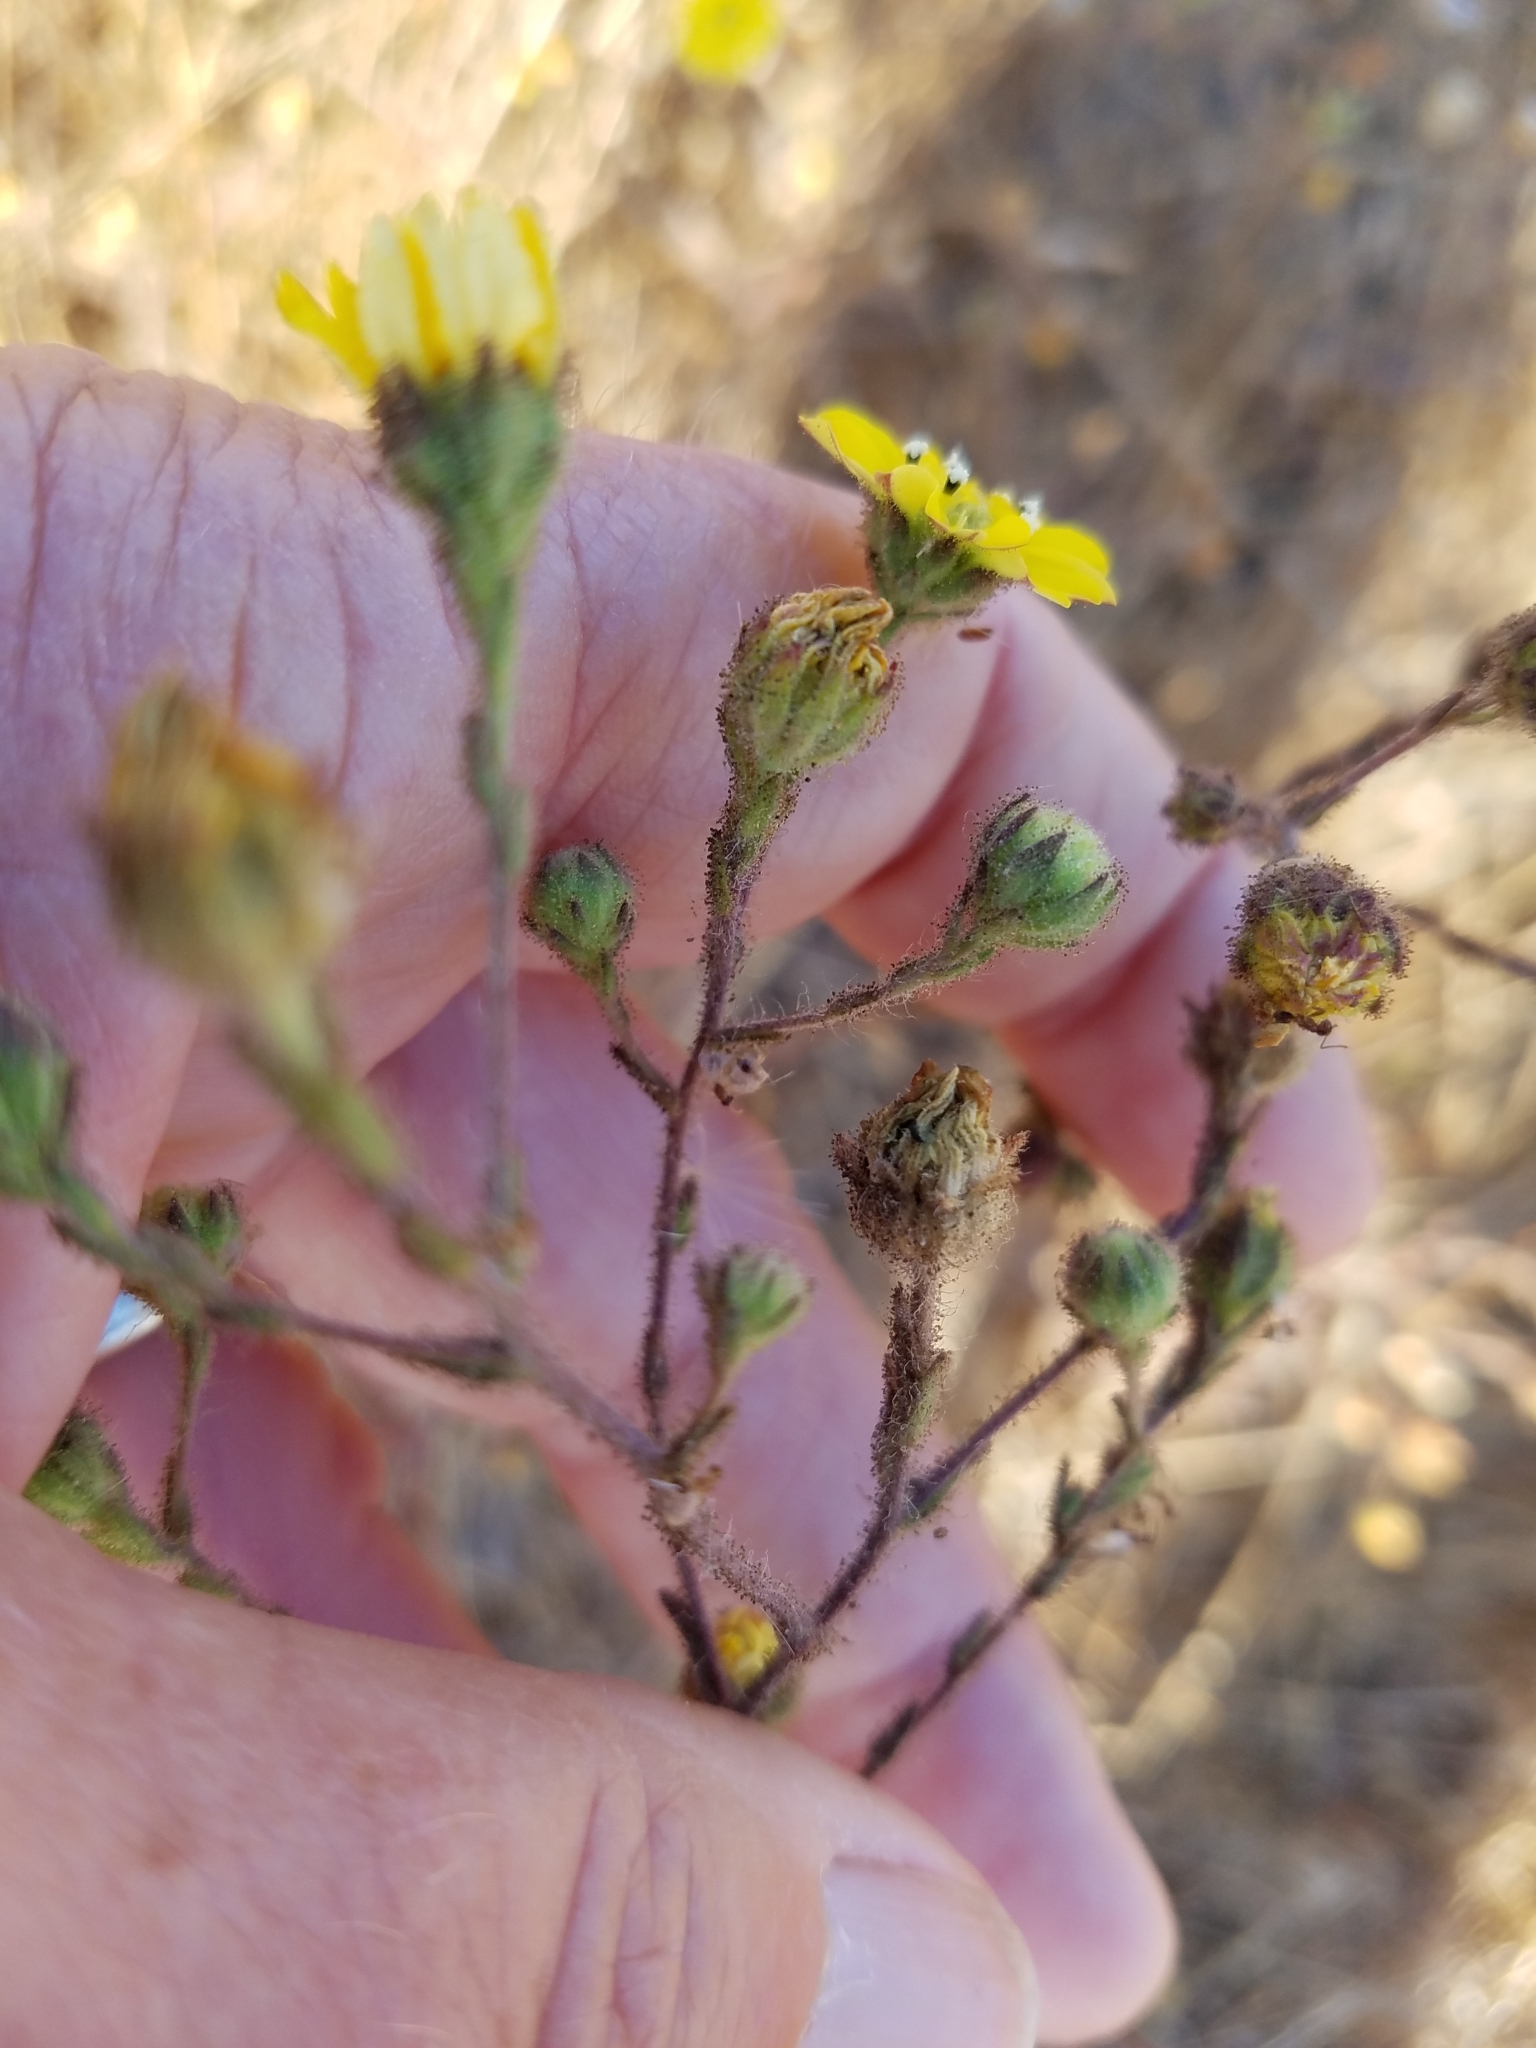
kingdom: Plantae
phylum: Tracheophyta
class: Magnoliopsida
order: Asterales
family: Asteraceae
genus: Hemizonia
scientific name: Hemizonia congesta
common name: Hayfield tarweed
